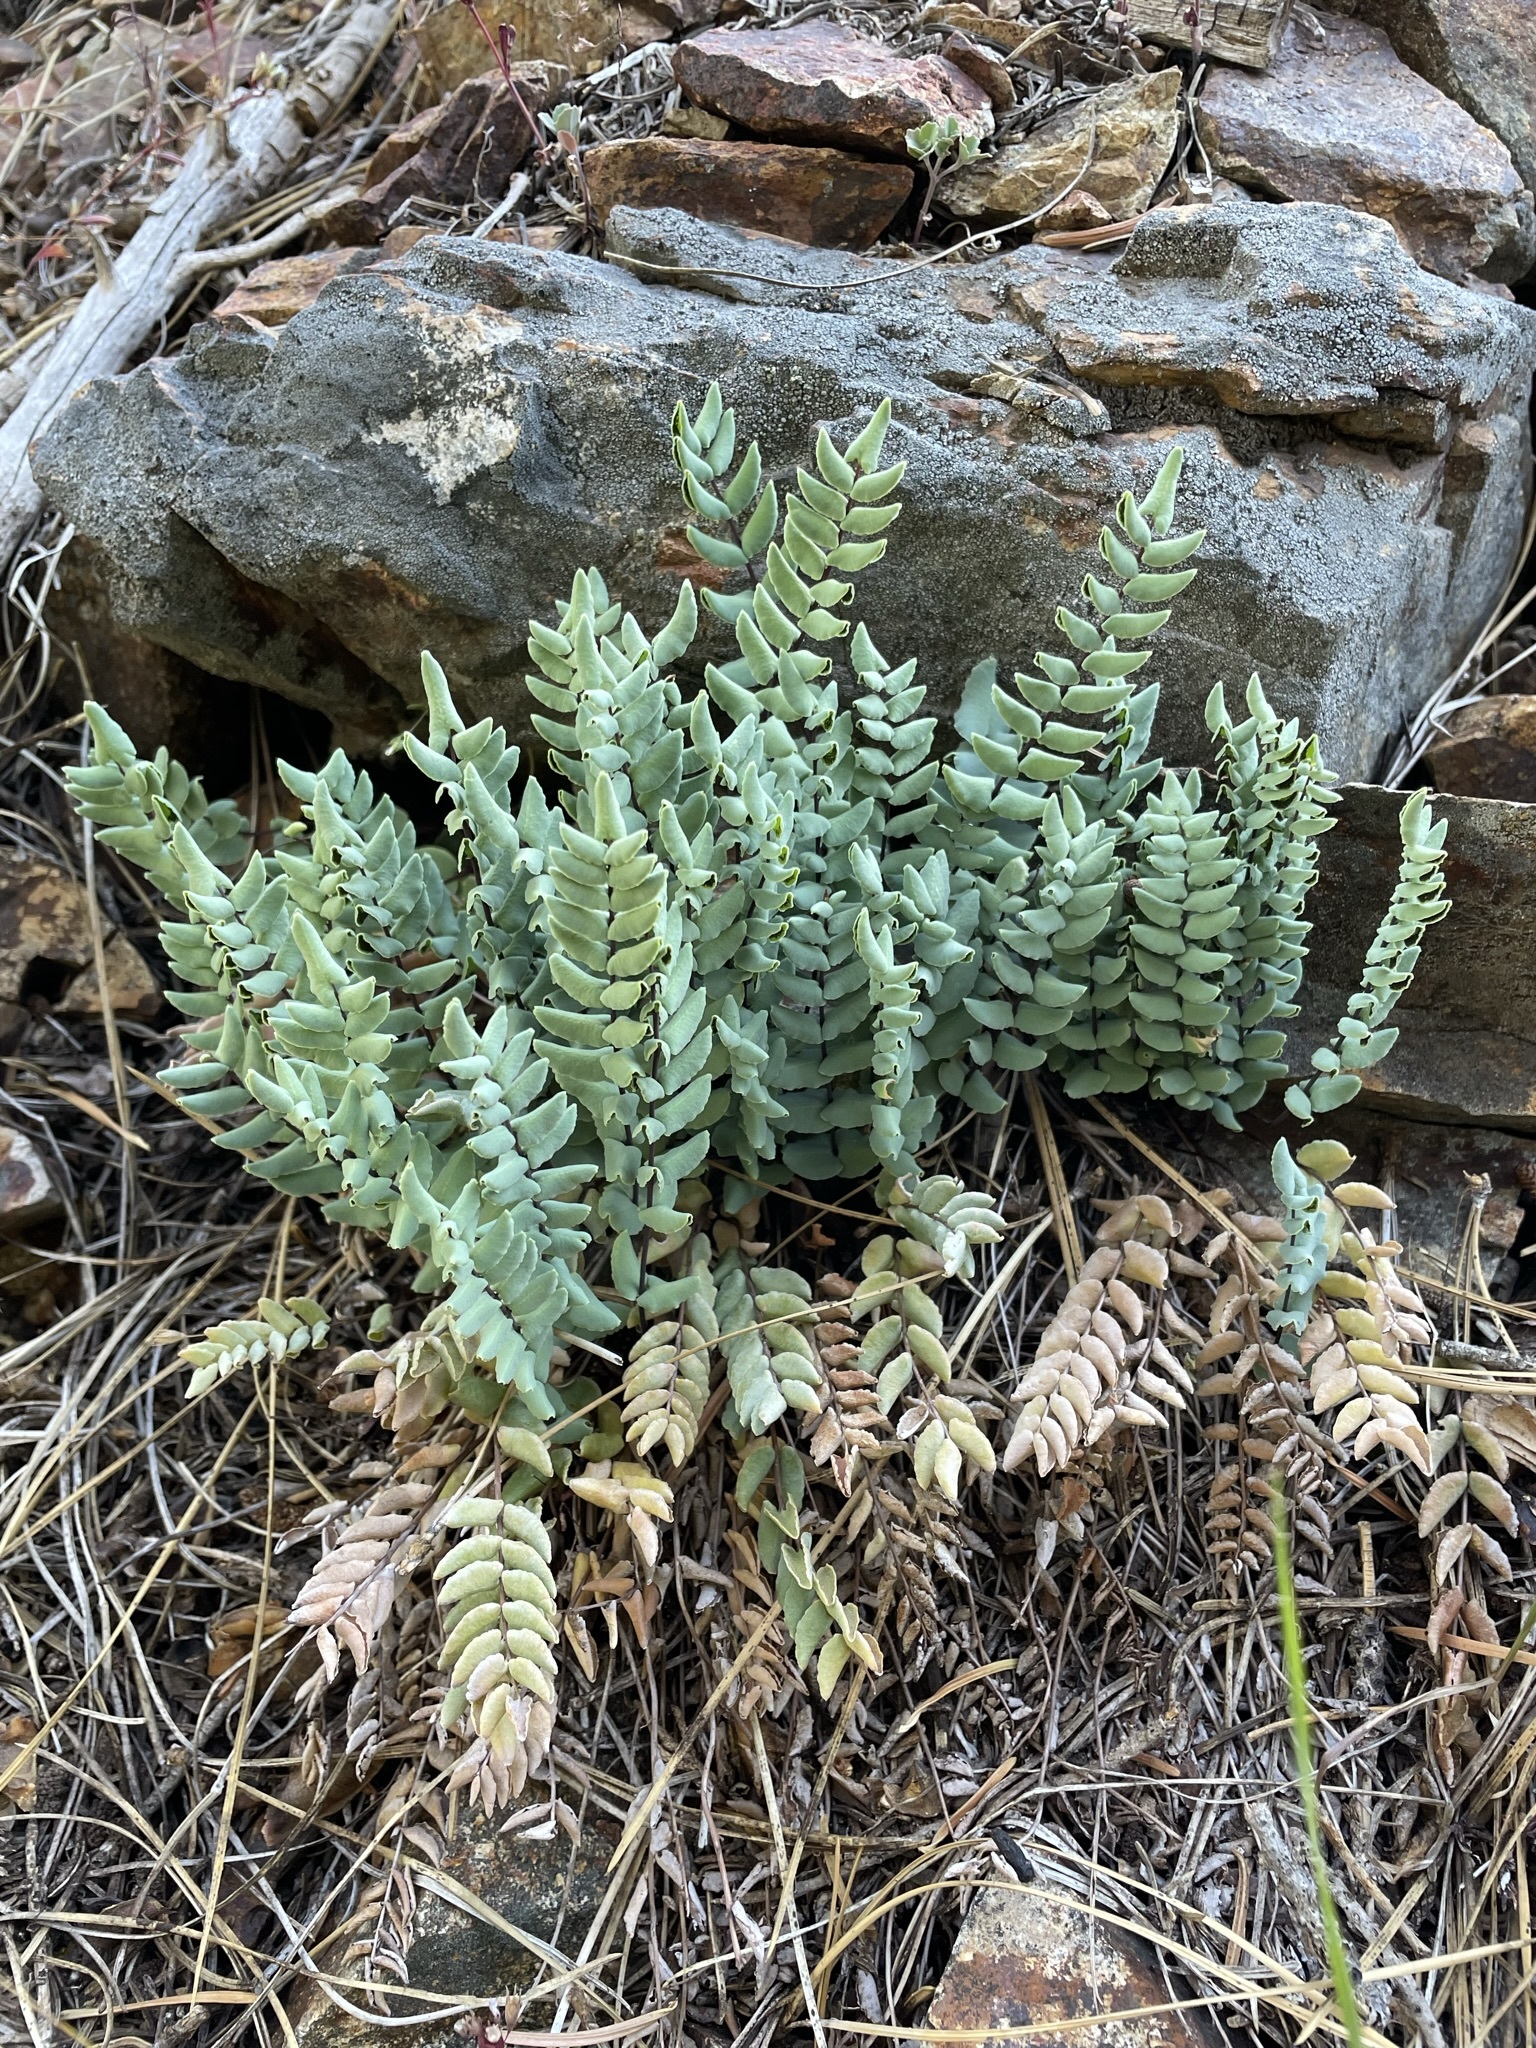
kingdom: Plantae
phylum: Tracheophyta
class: Polypodiopsida
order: Polypodiales
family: Pteridaceae
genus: Pellaea
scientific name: Pellaea bridgesii
